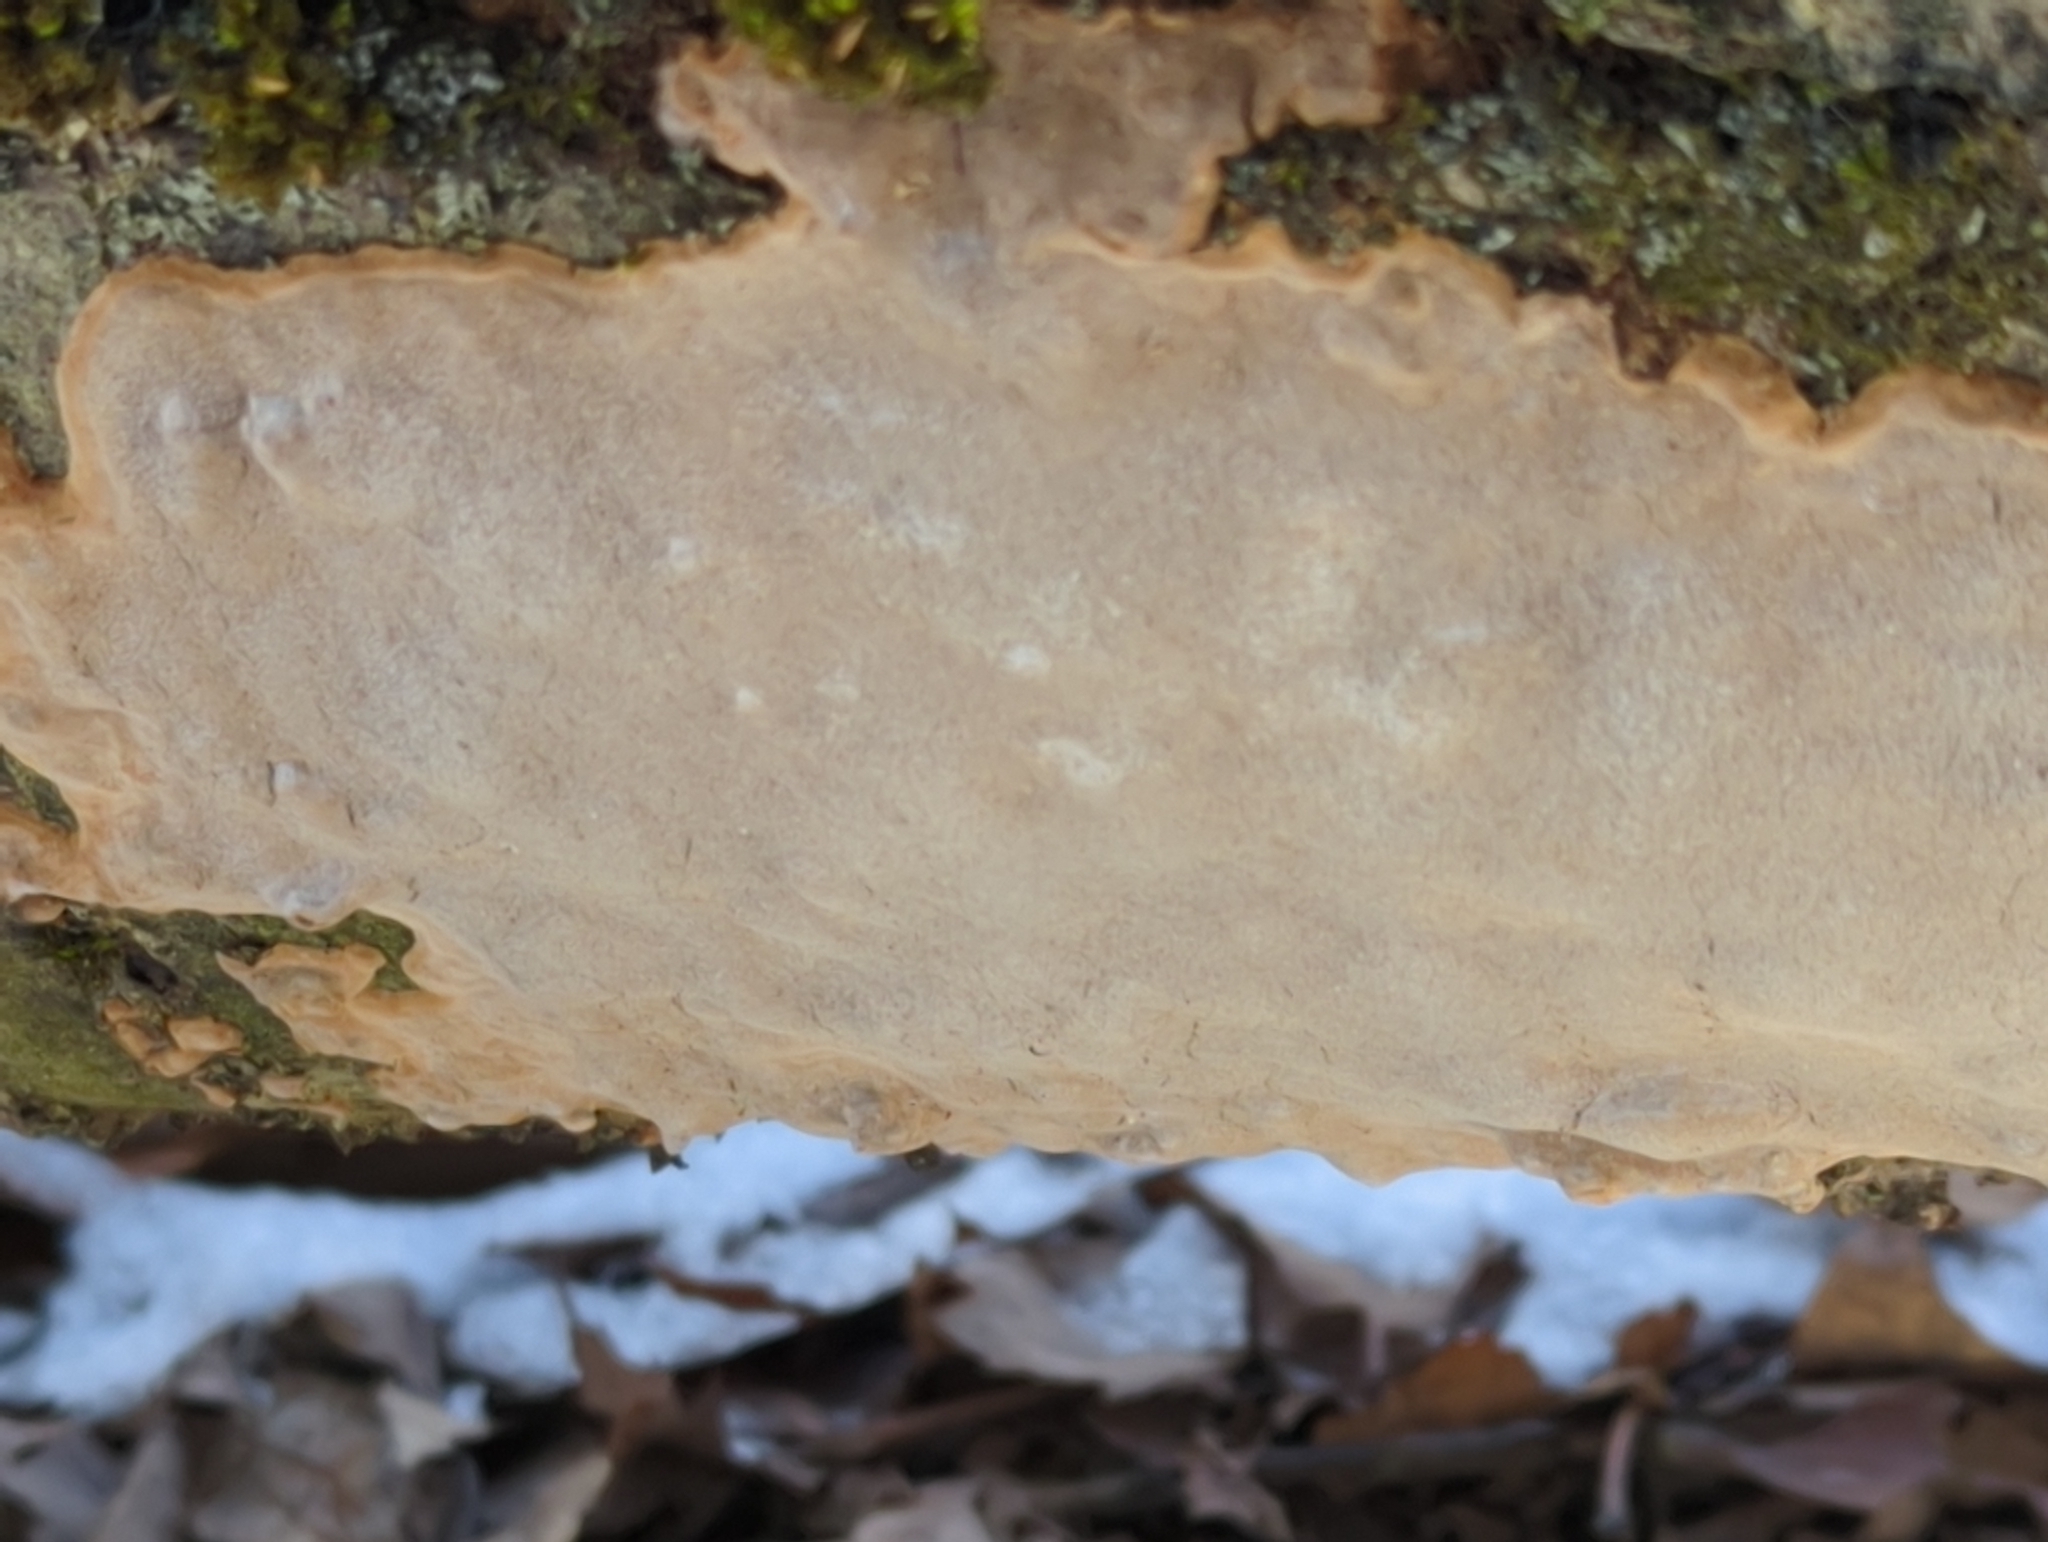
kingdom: Fungi
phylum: Basidiomycota
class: Agaricomycetes
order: Hymenochaetales
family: Hymenochaetaceae
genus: Phellinus
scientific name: Phellinus betulinus
